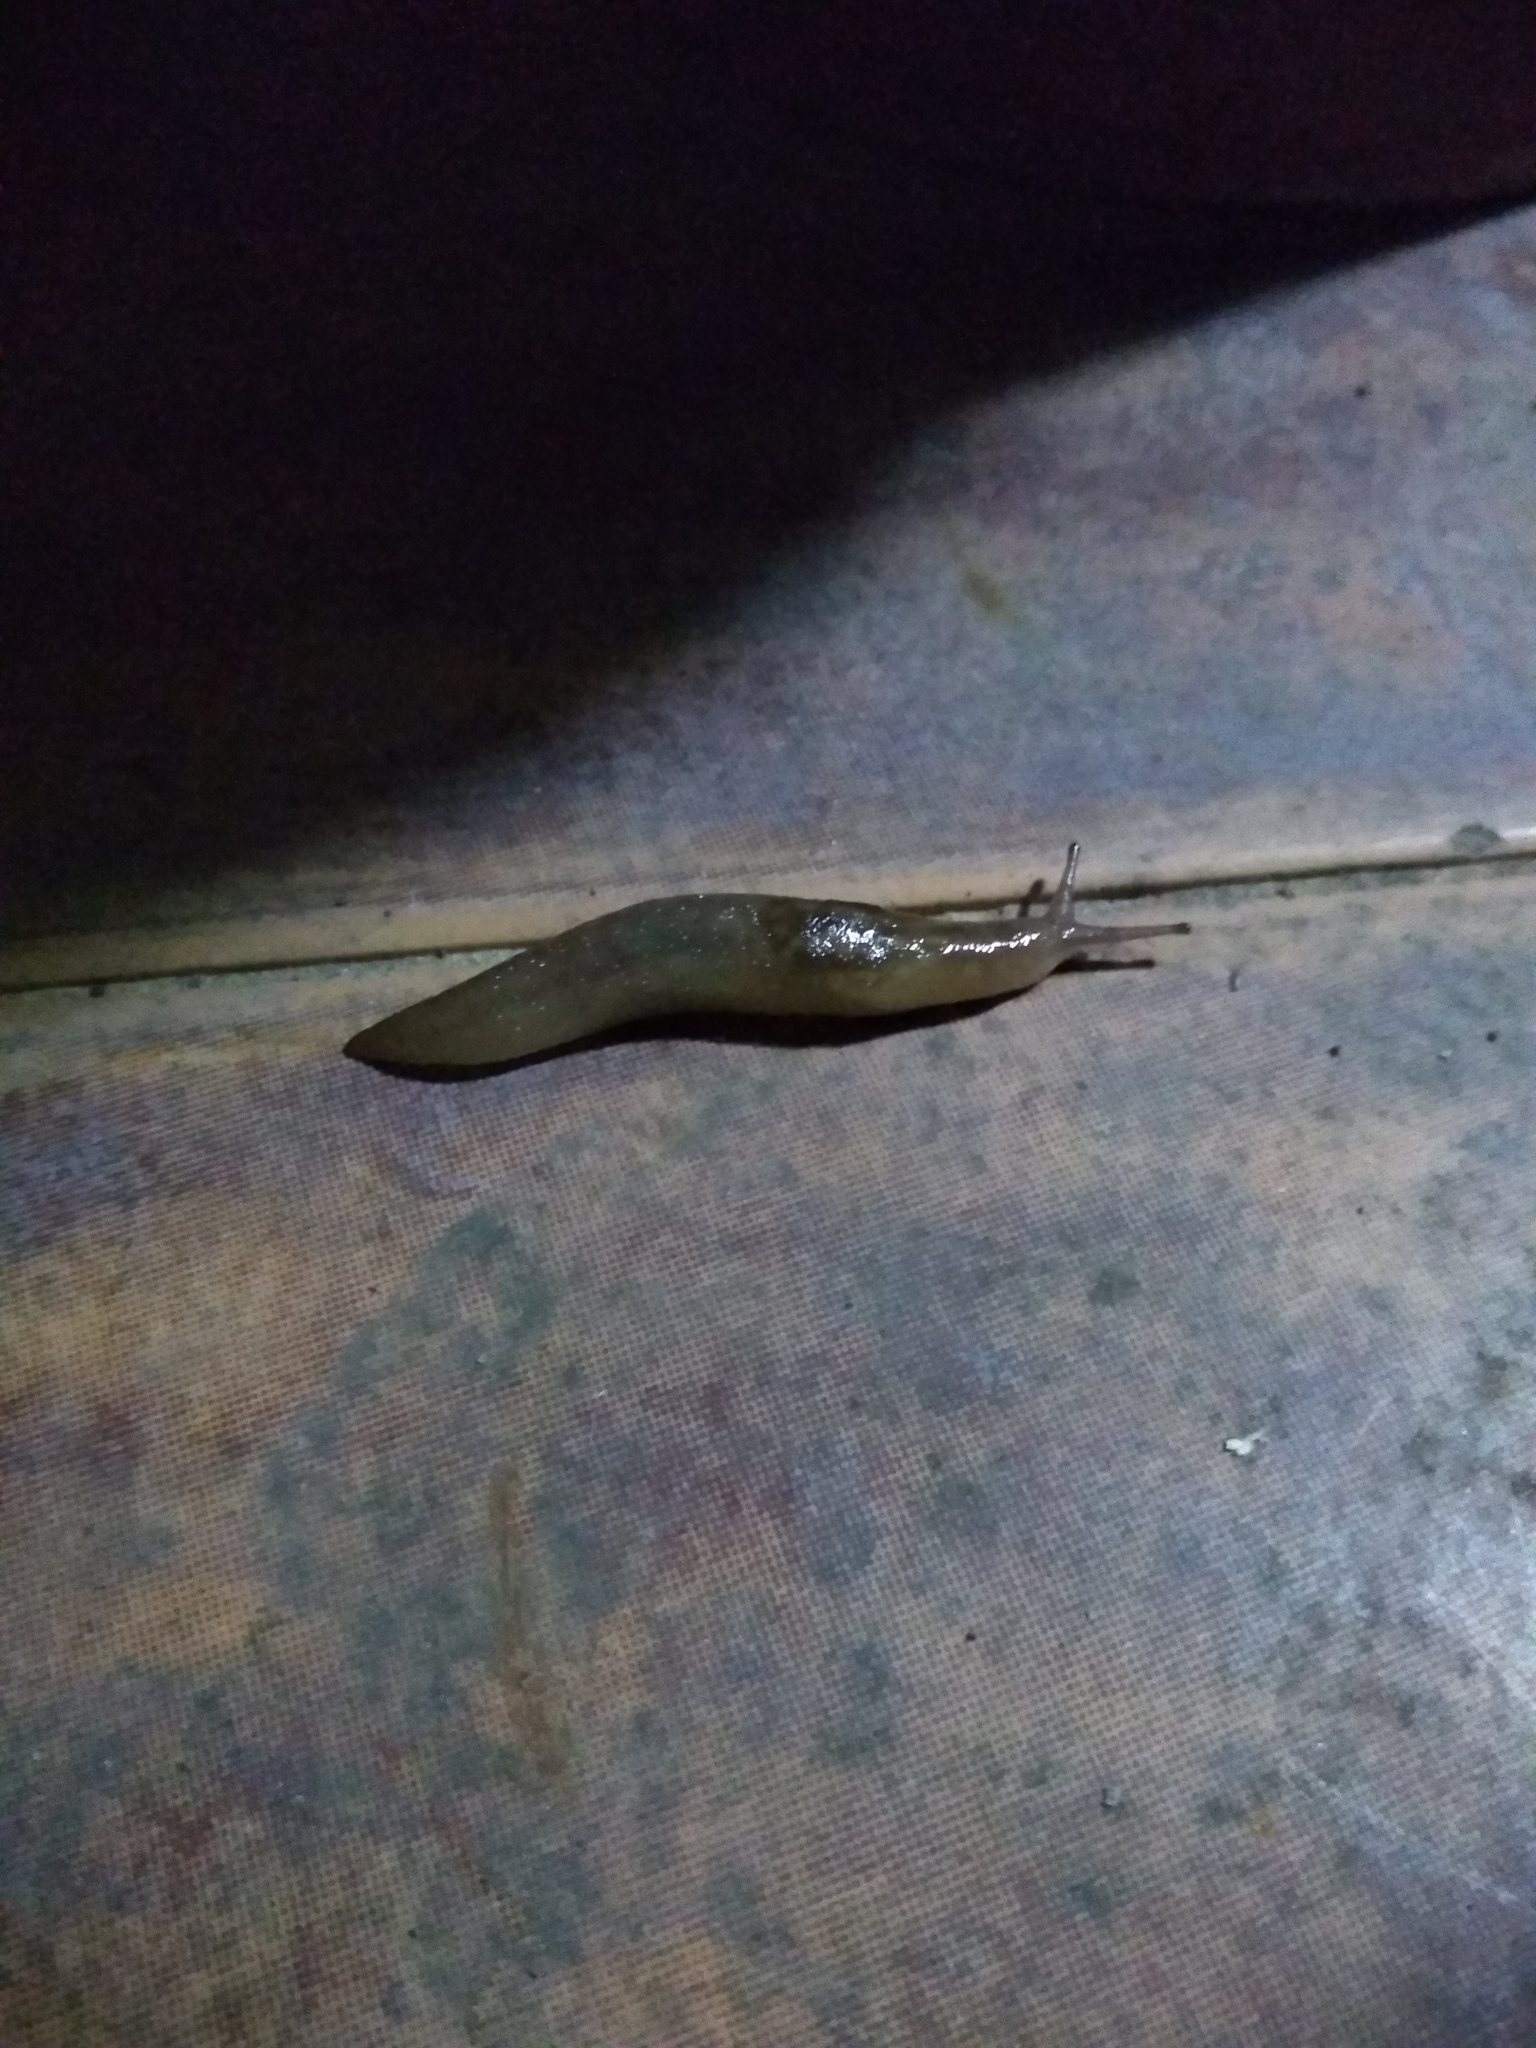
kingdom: Animalia
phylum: Mollusca
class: Gastropoda
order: Stylommatophora
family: Limacidae
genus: Limacus
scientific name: Limacus flavus
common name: Yellow gardenslug
